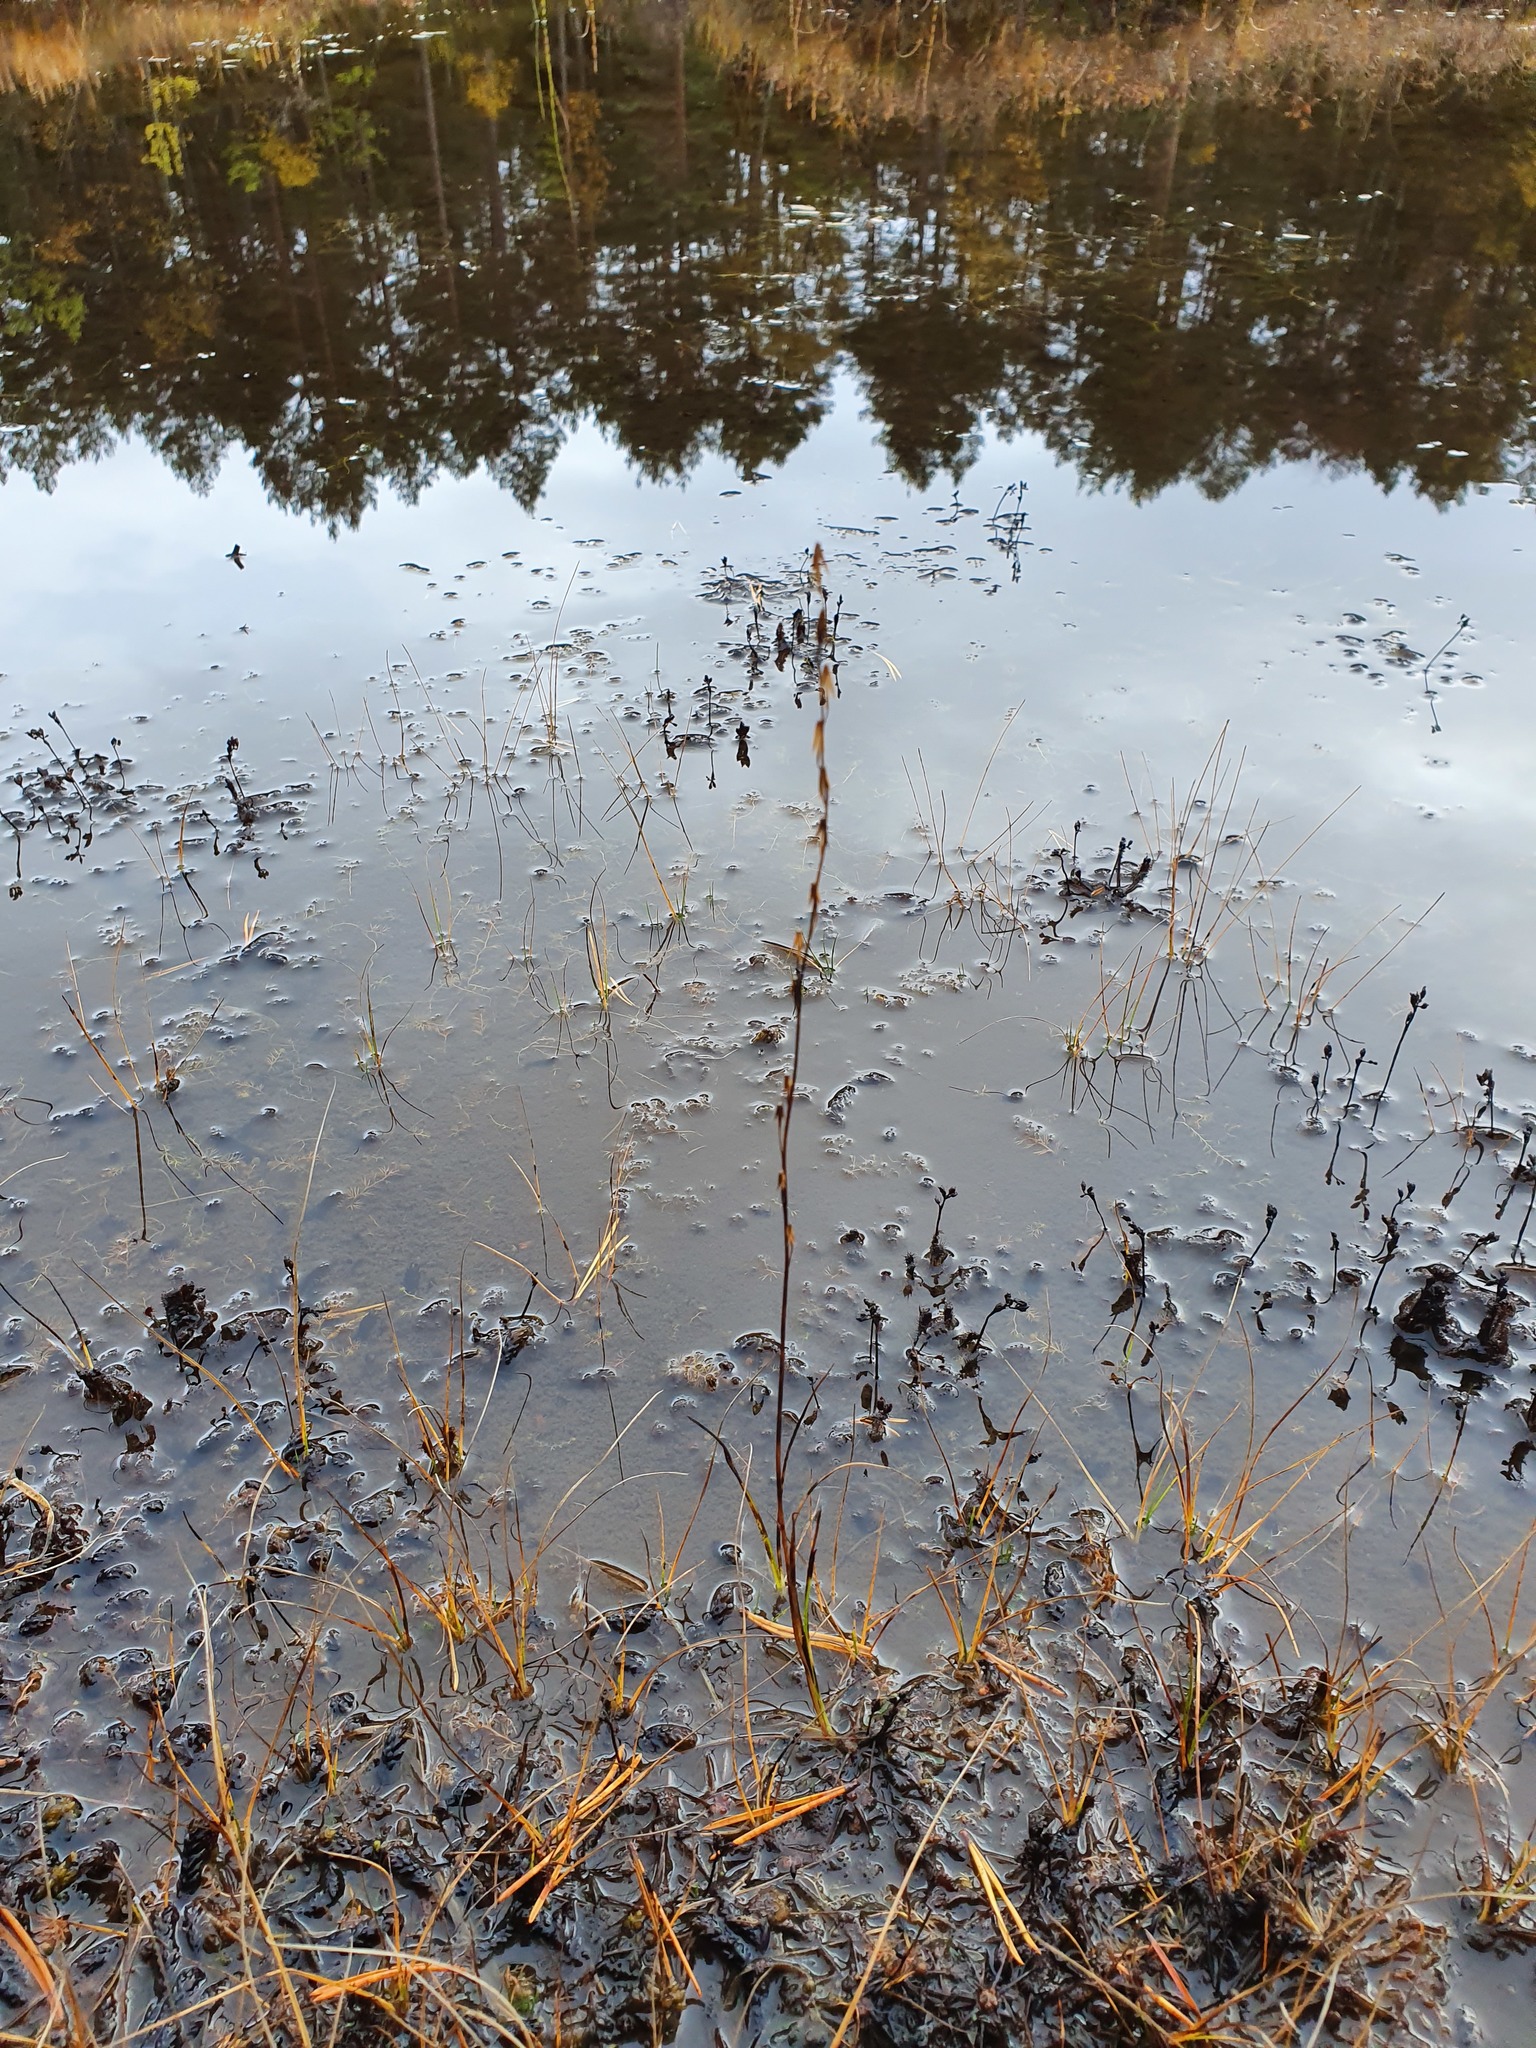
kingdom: Plantae
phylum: Tracheophyta
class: Liliopsida
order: Alismatales
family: Juncaginaceae
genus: Triglochin
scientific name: Triglochin palustris
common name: Marsh arrowgrass
